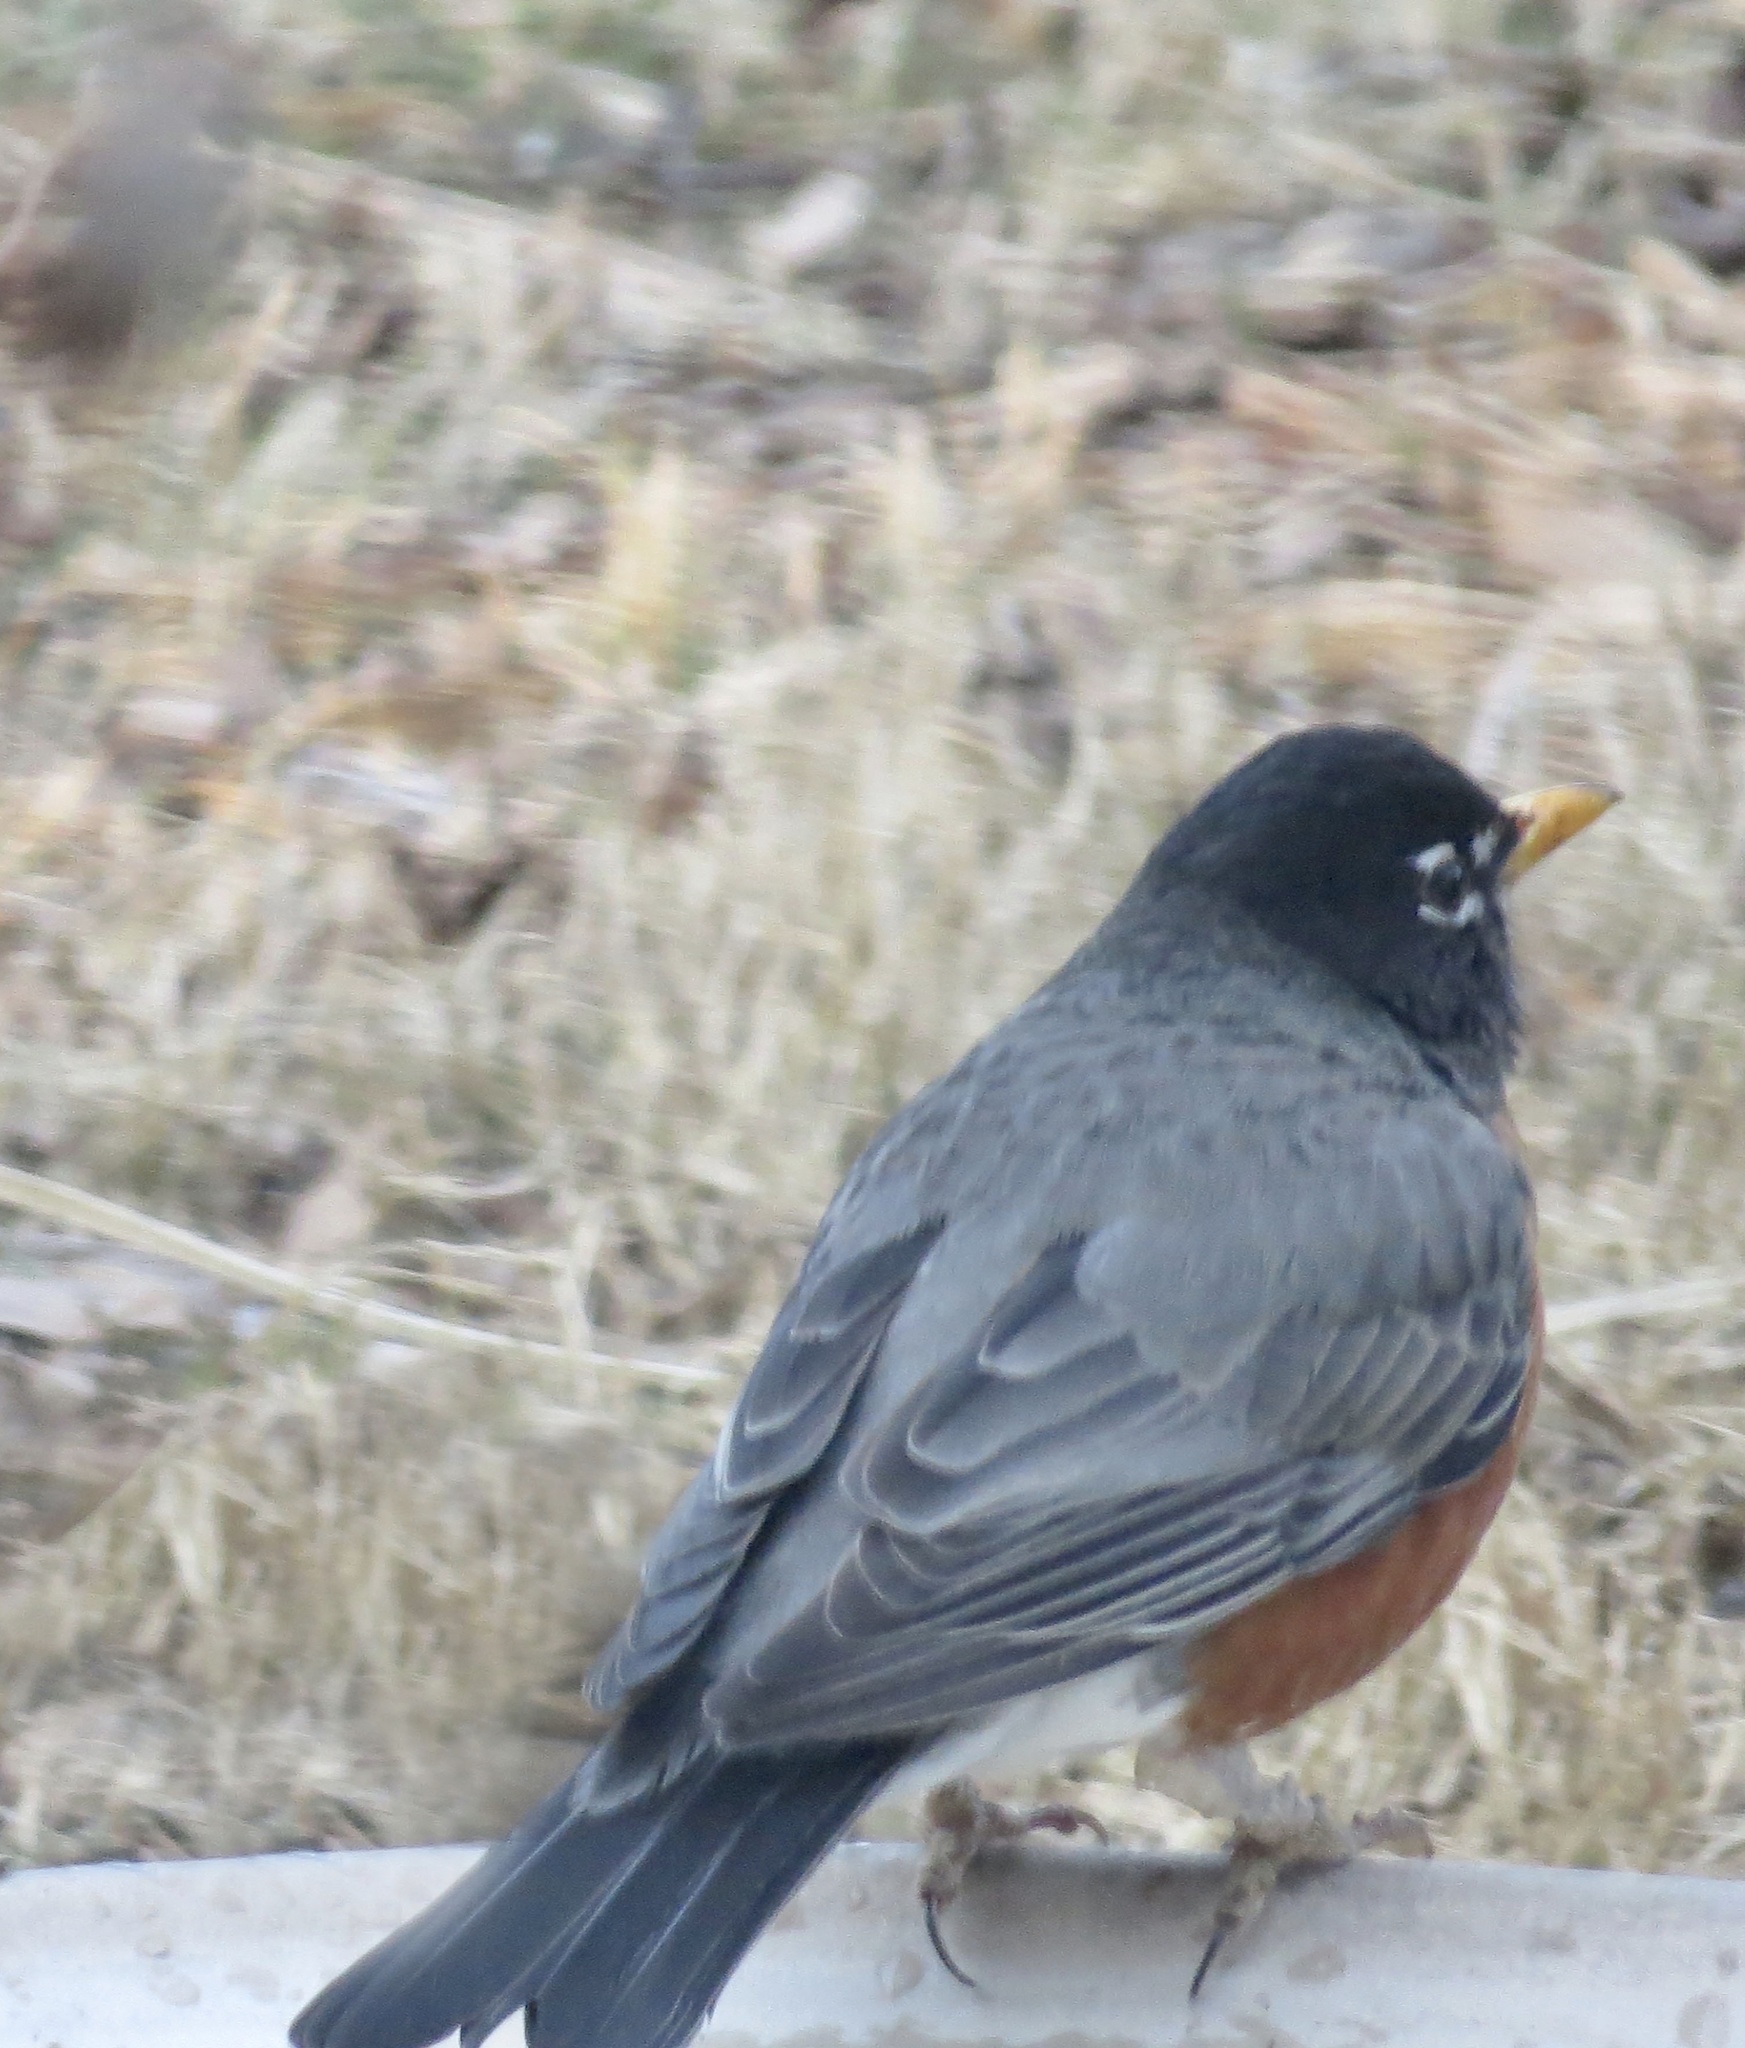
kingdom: Animalia
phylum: Chordata
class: Aves
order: Passeriformes
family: Turdidae
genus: Turdus
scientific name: Turdus migratorius
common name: American robin
